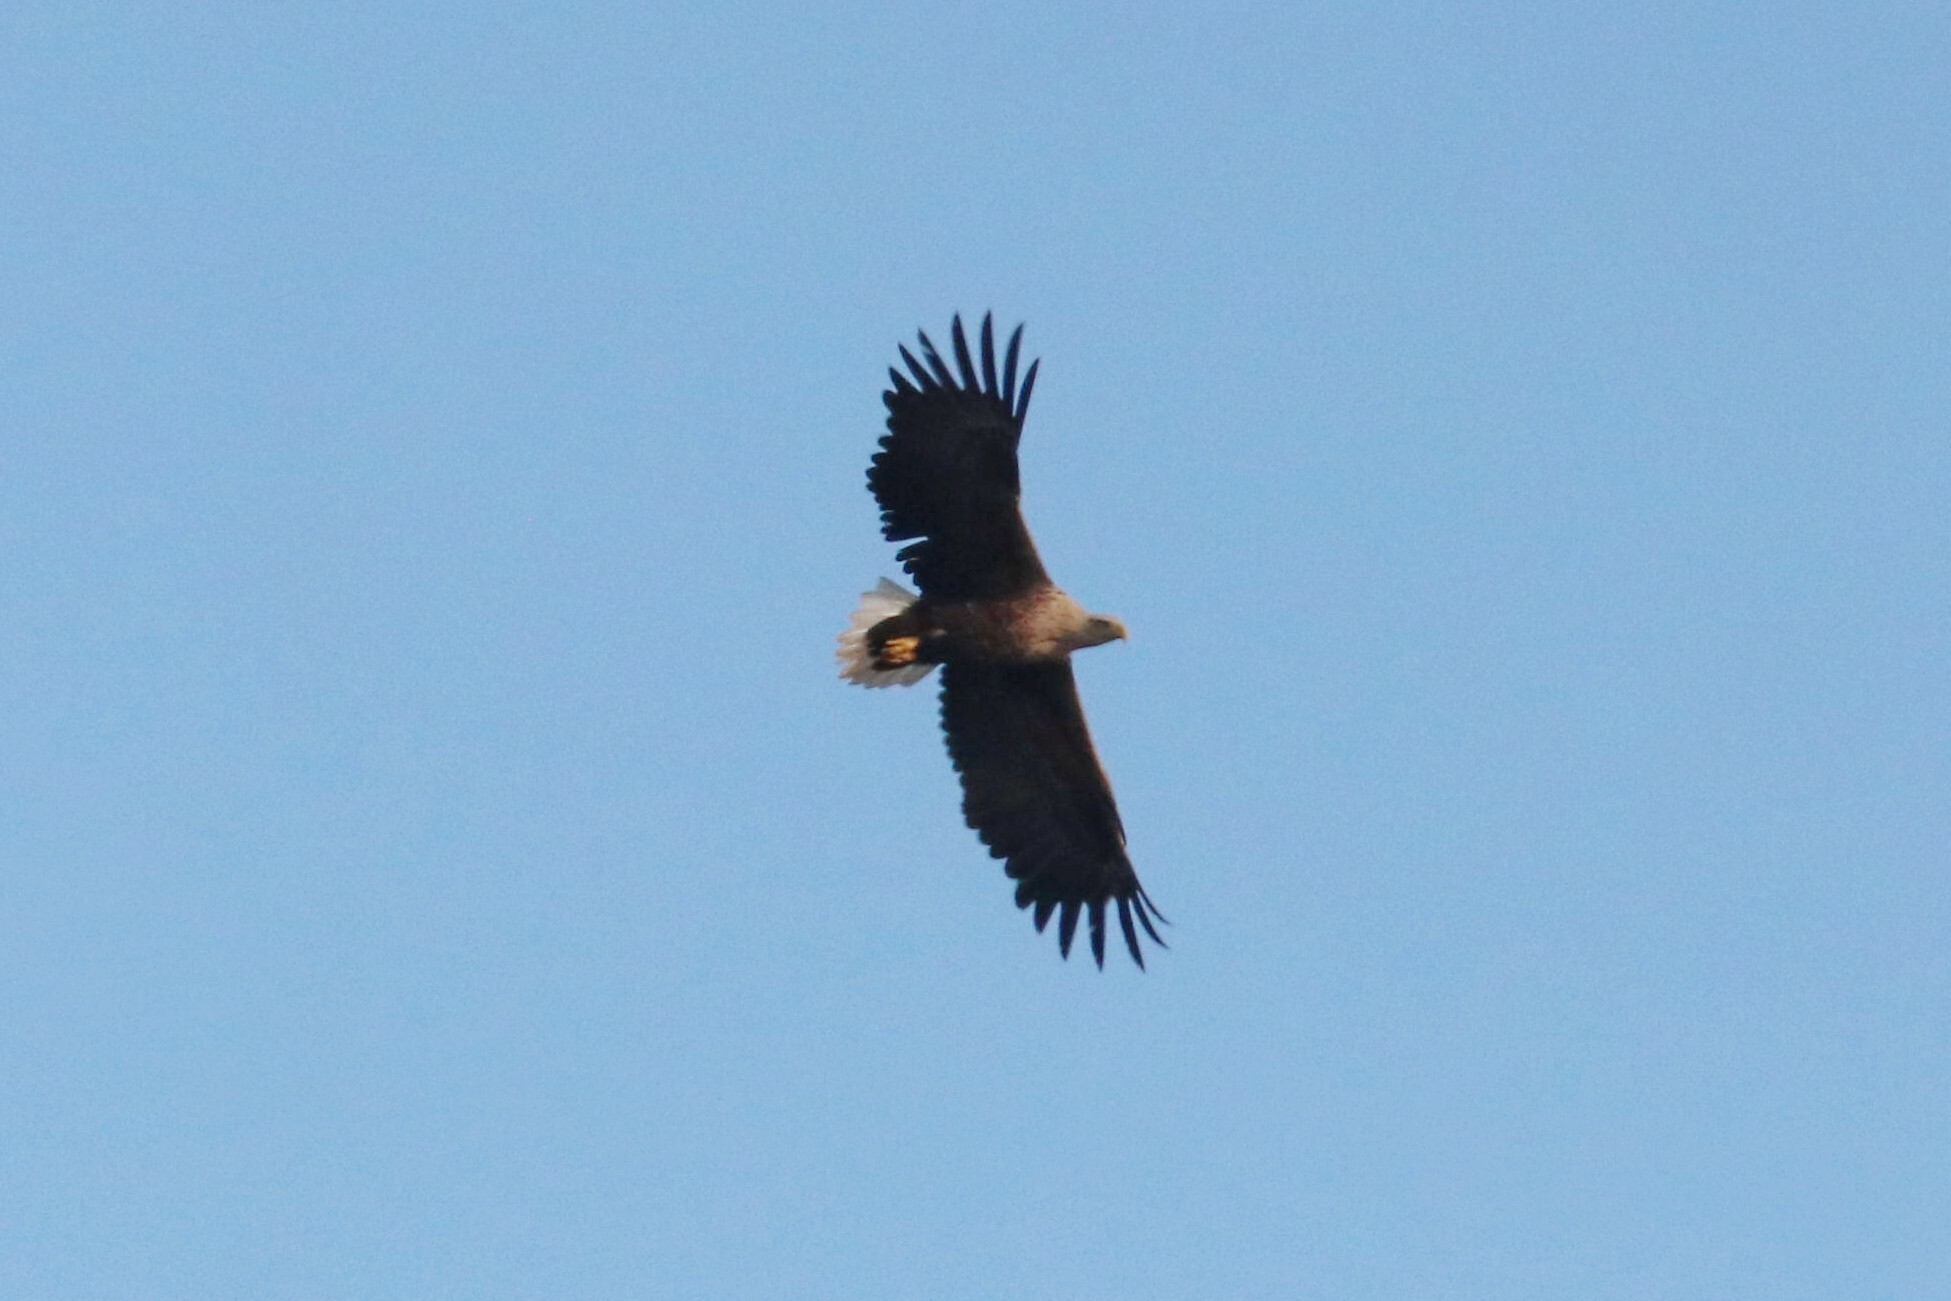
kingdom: Animalia
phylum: Chordata
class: Aves
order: Accipitriformes
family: Accipitridae
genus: Haliaeetus
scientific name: Haliaeetus albicilla
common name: White-tailed eagle
